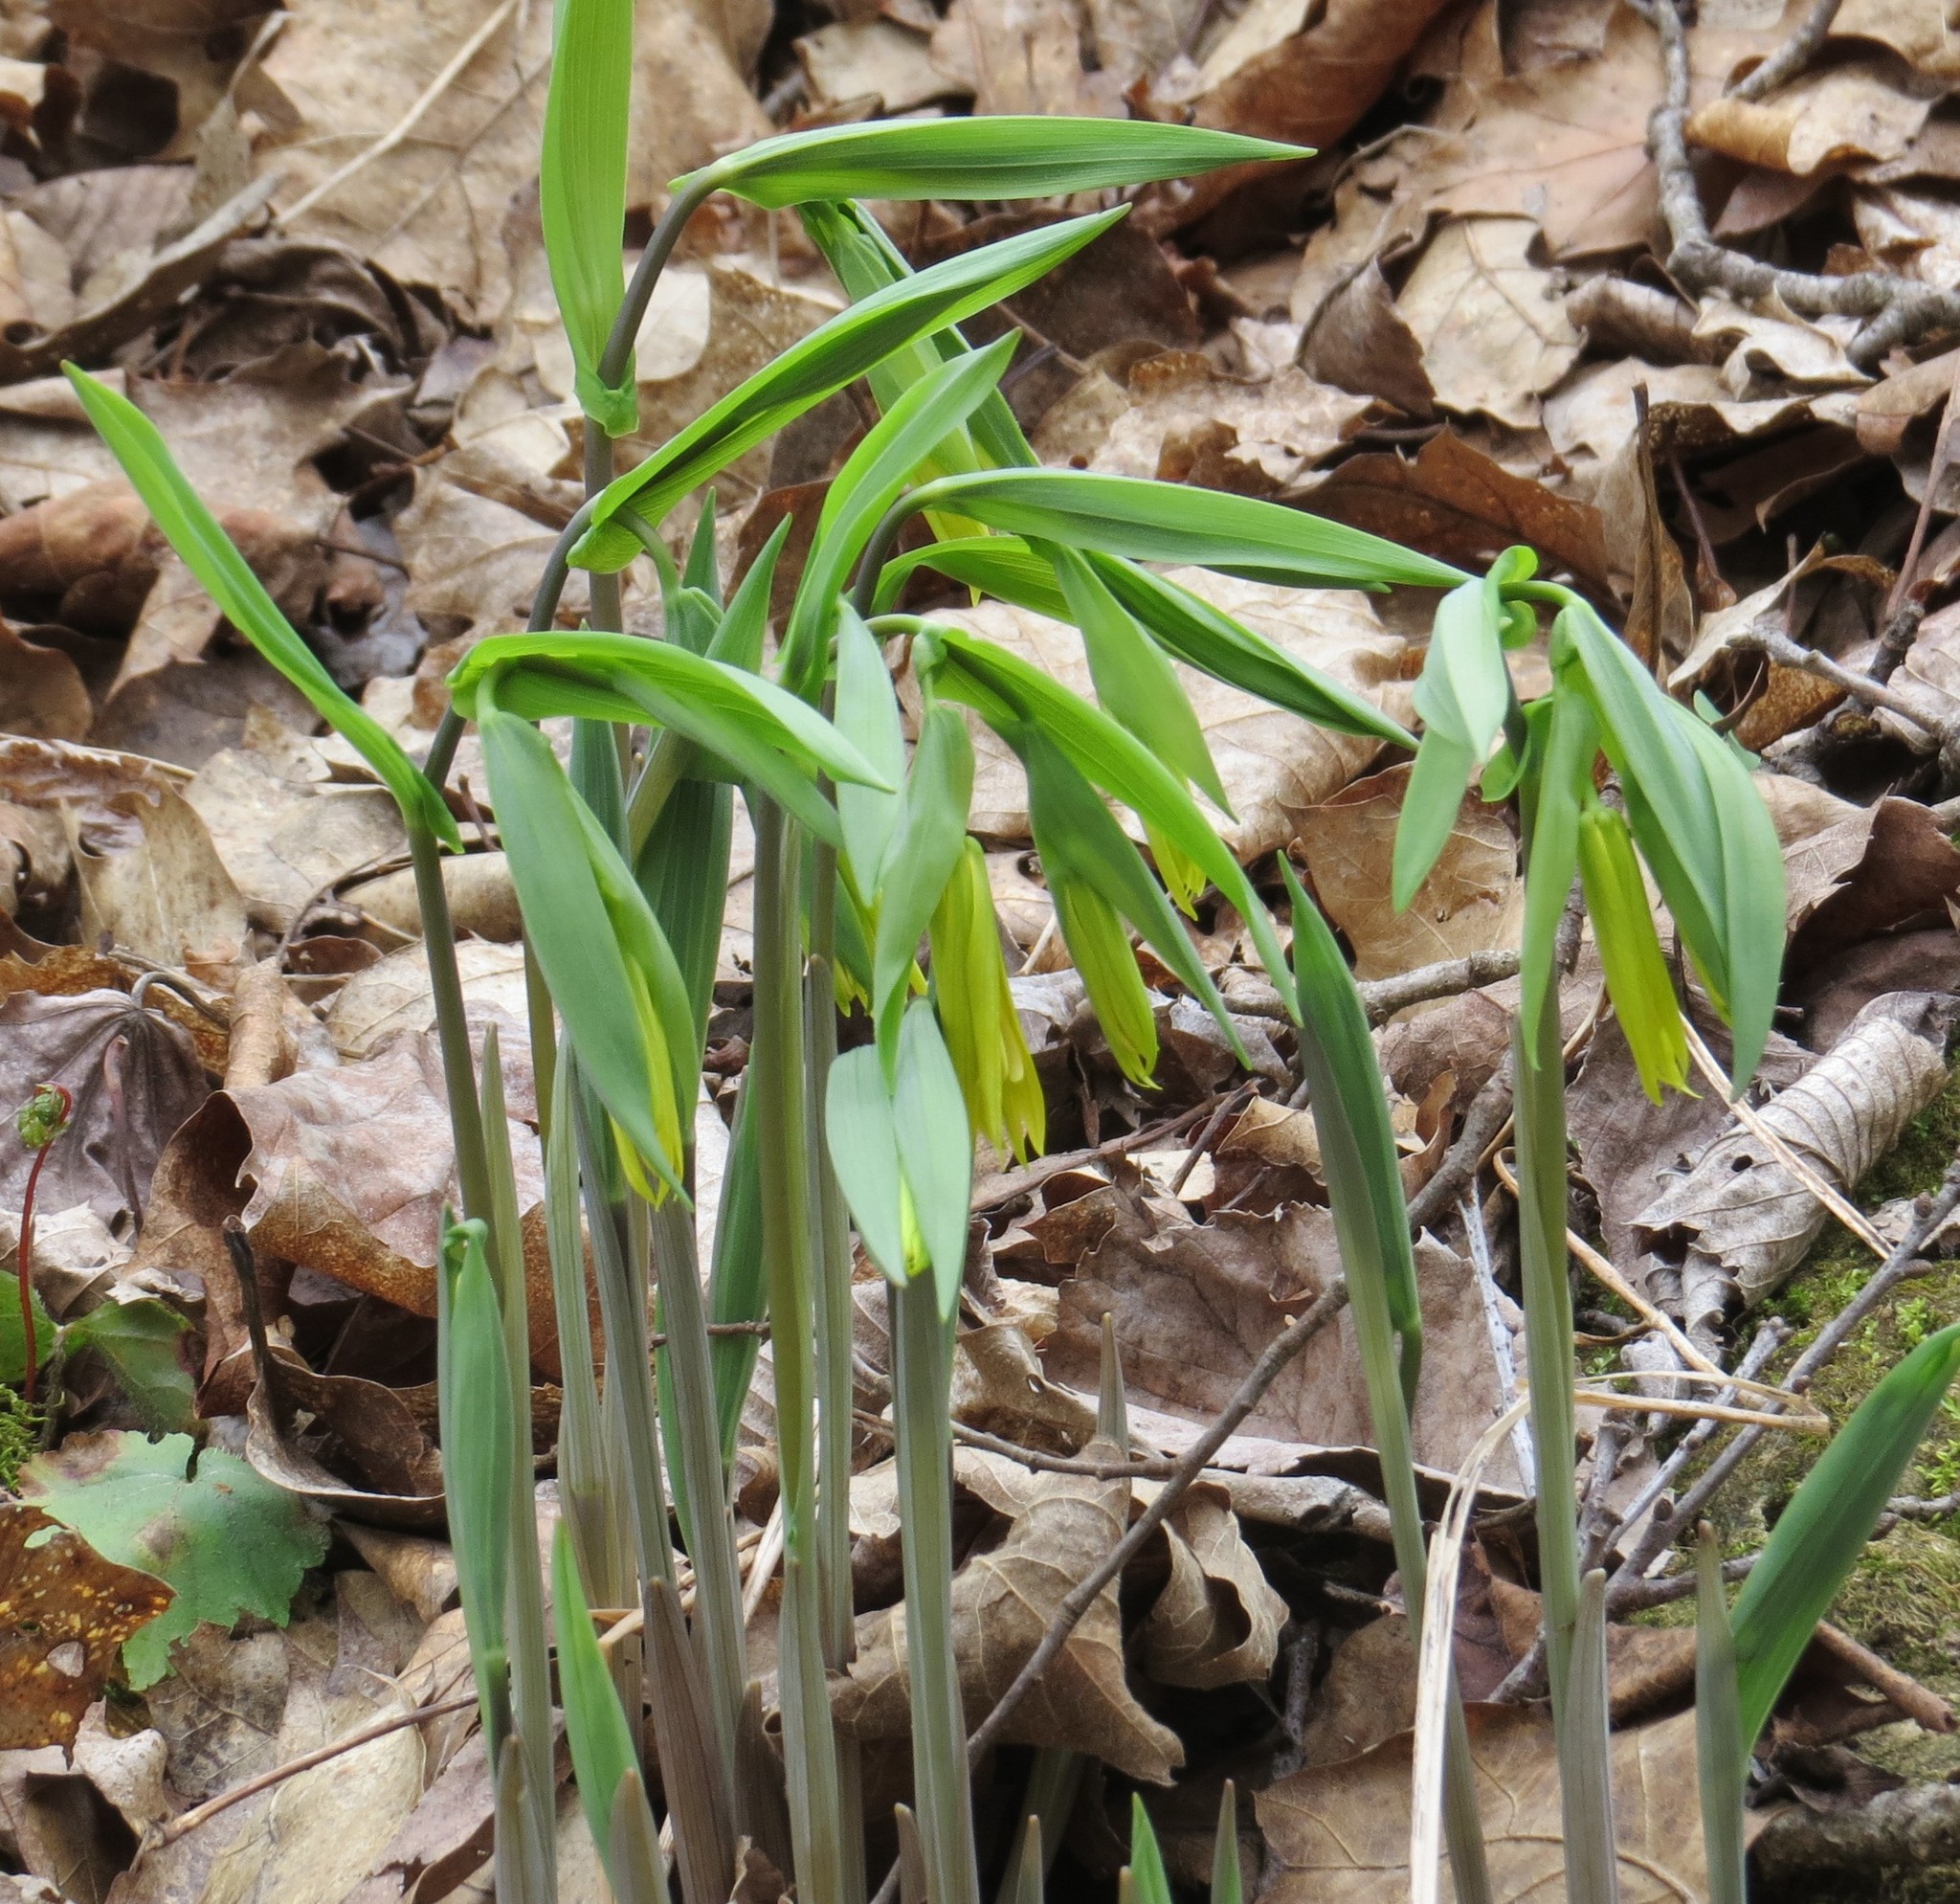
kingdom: Plantae
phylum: Tracheophyta
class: Liliopsida
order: Liliales
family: Colchicaceae
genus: Uvularia
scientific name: Uvularia grandiflora
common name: Bellwort
